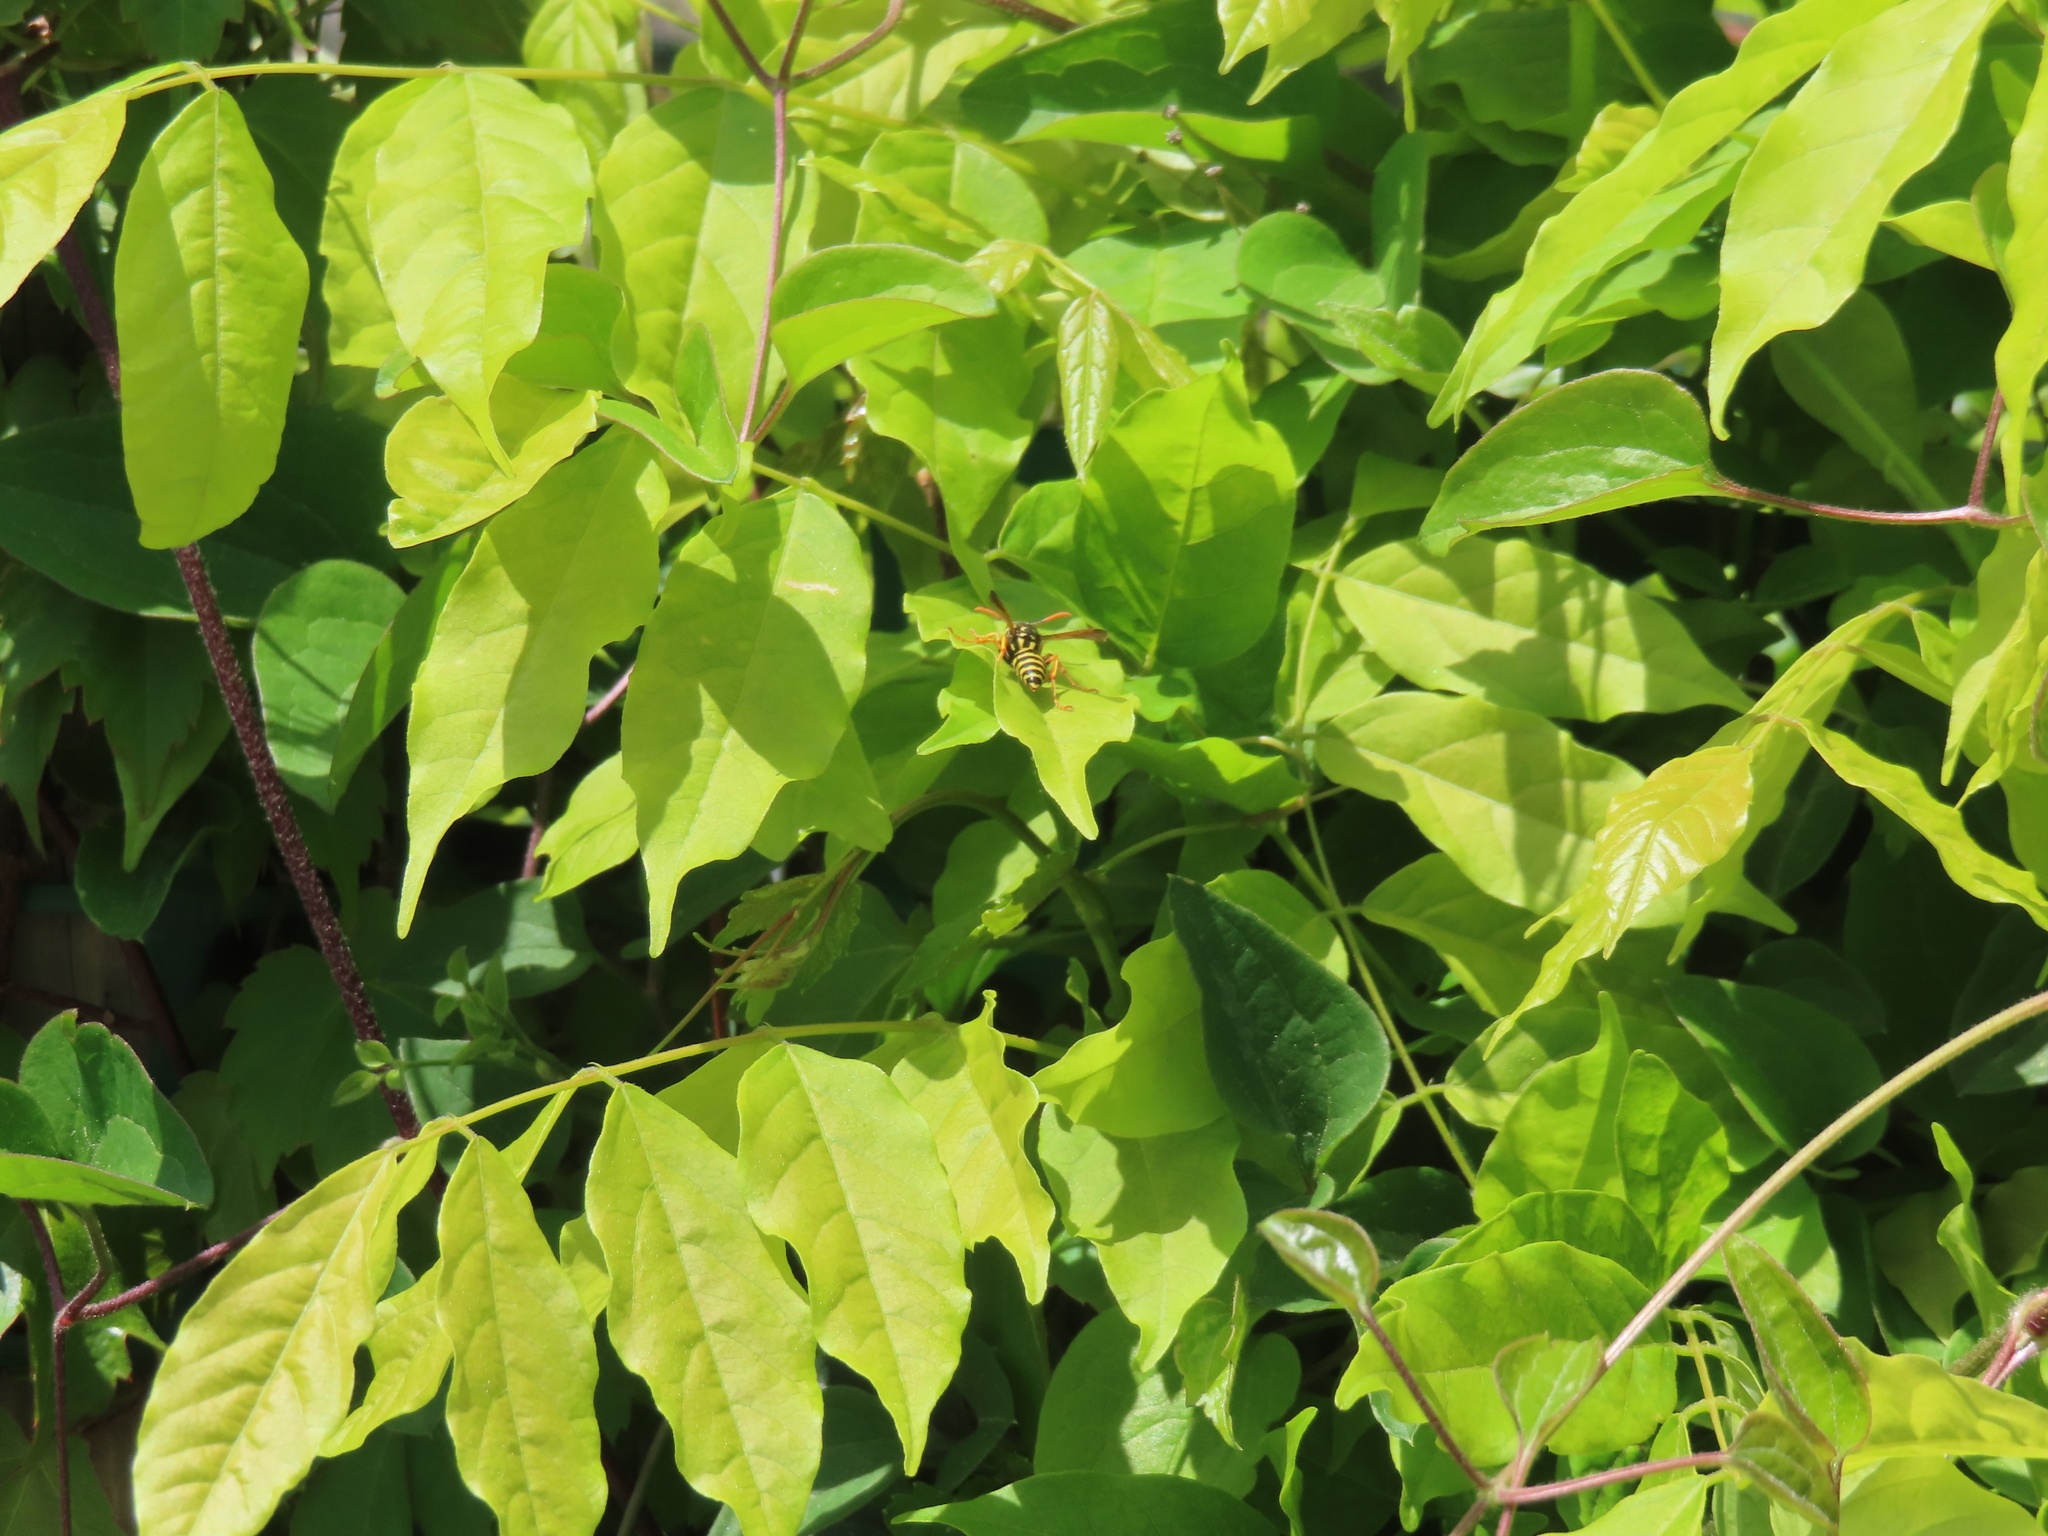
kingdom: Animalia
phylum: Arthropoda
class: Insecta
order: Hymenoptera
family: Eumenidae
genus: Polistes
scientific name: Polistes dominula
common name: Paper wasp
